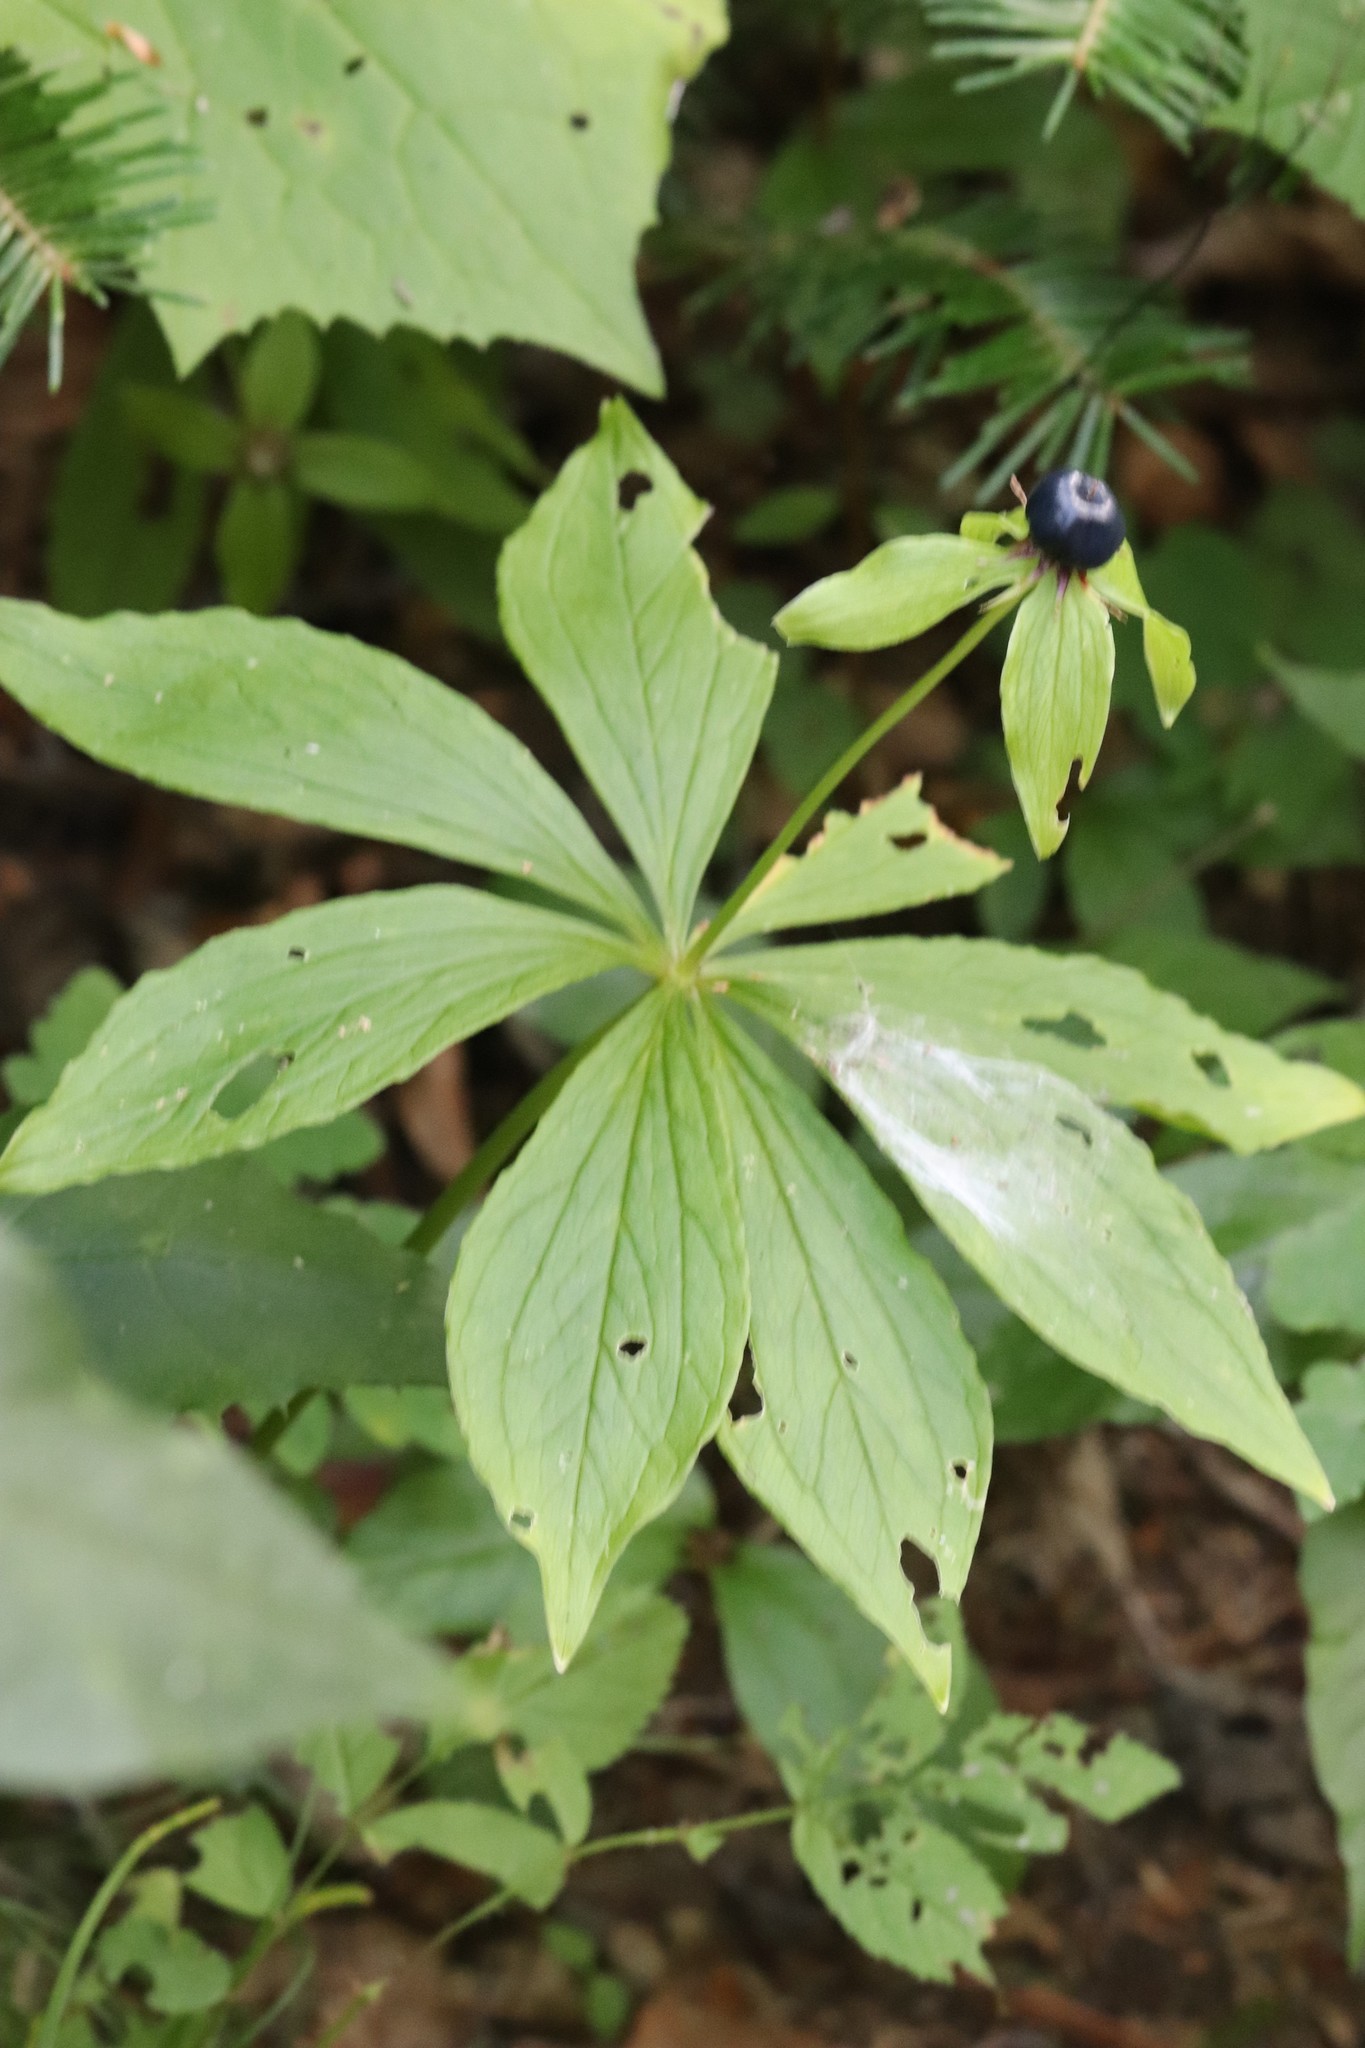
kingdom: Plantae
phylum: Tracheophyta
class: Liliopsida
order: Liliales
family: Melanthiaceae
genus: Paris
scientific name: Paris verticillata
